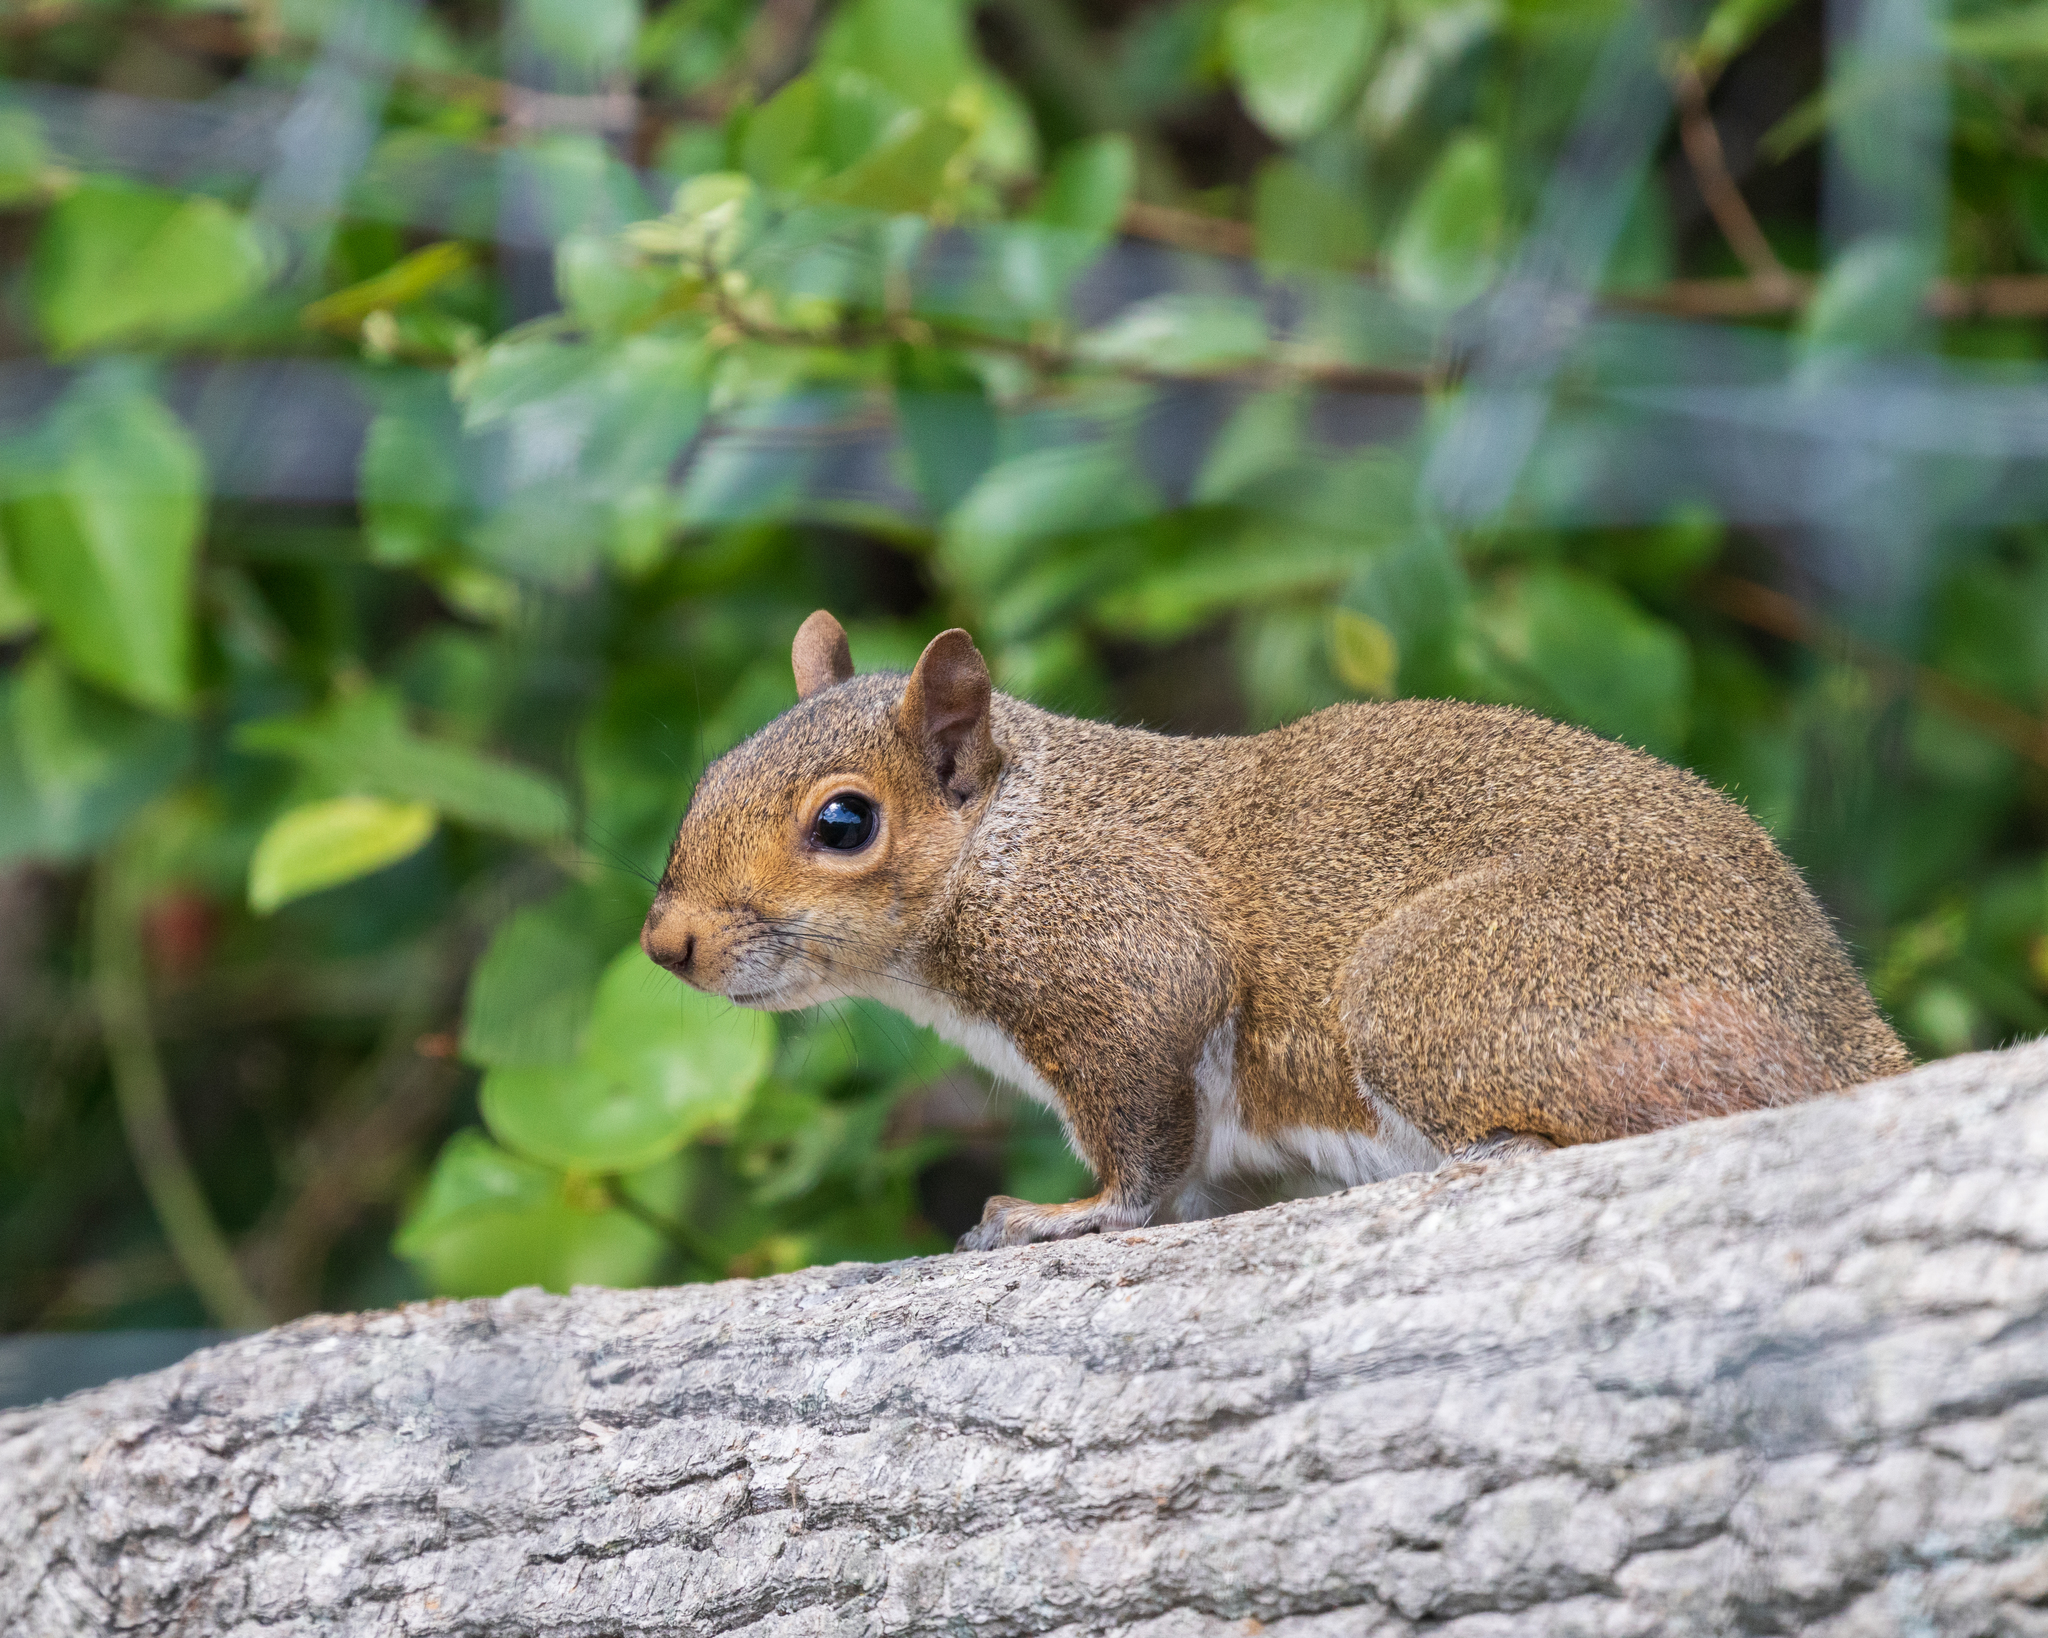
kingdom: Animalia
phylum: Chordata
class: Mammalia
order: Rodentia
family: Sciuridae
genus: Sciurus
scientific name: Sciurus carolinensis
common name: Eastern gray squirrel
